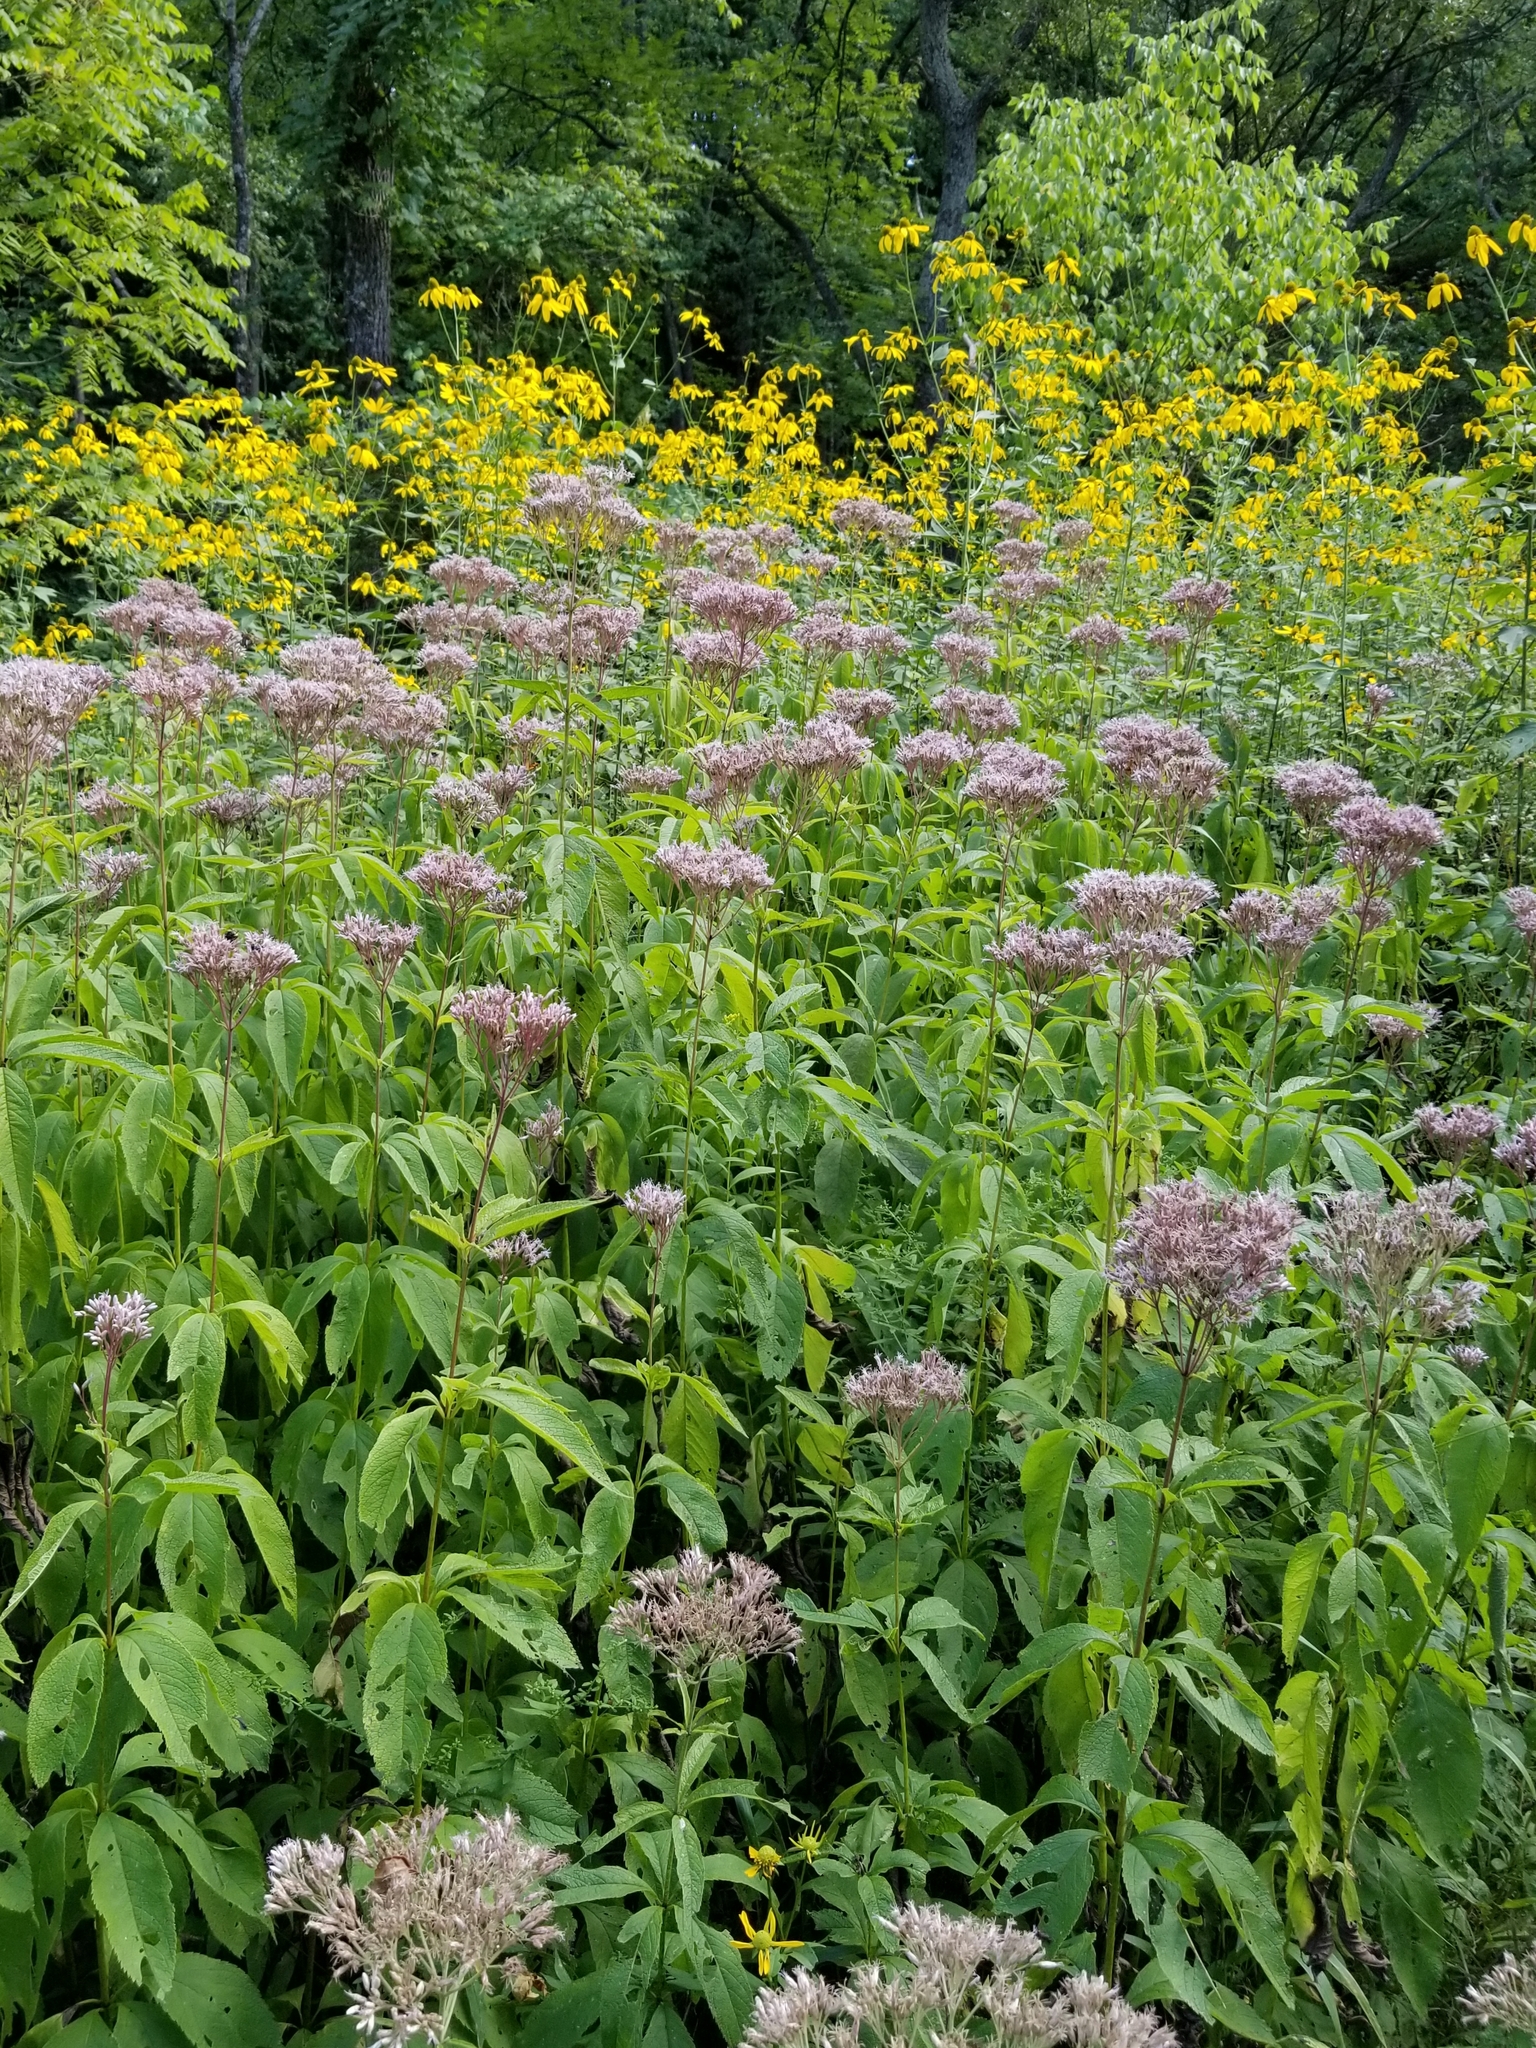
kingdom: Plantae
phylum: Tracheophyta
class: Magnoliopsida
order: Asterales
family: Asteraceae
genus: Eutrochium
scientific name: Eutrochium maculatum
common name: Spotted joe pye weed
